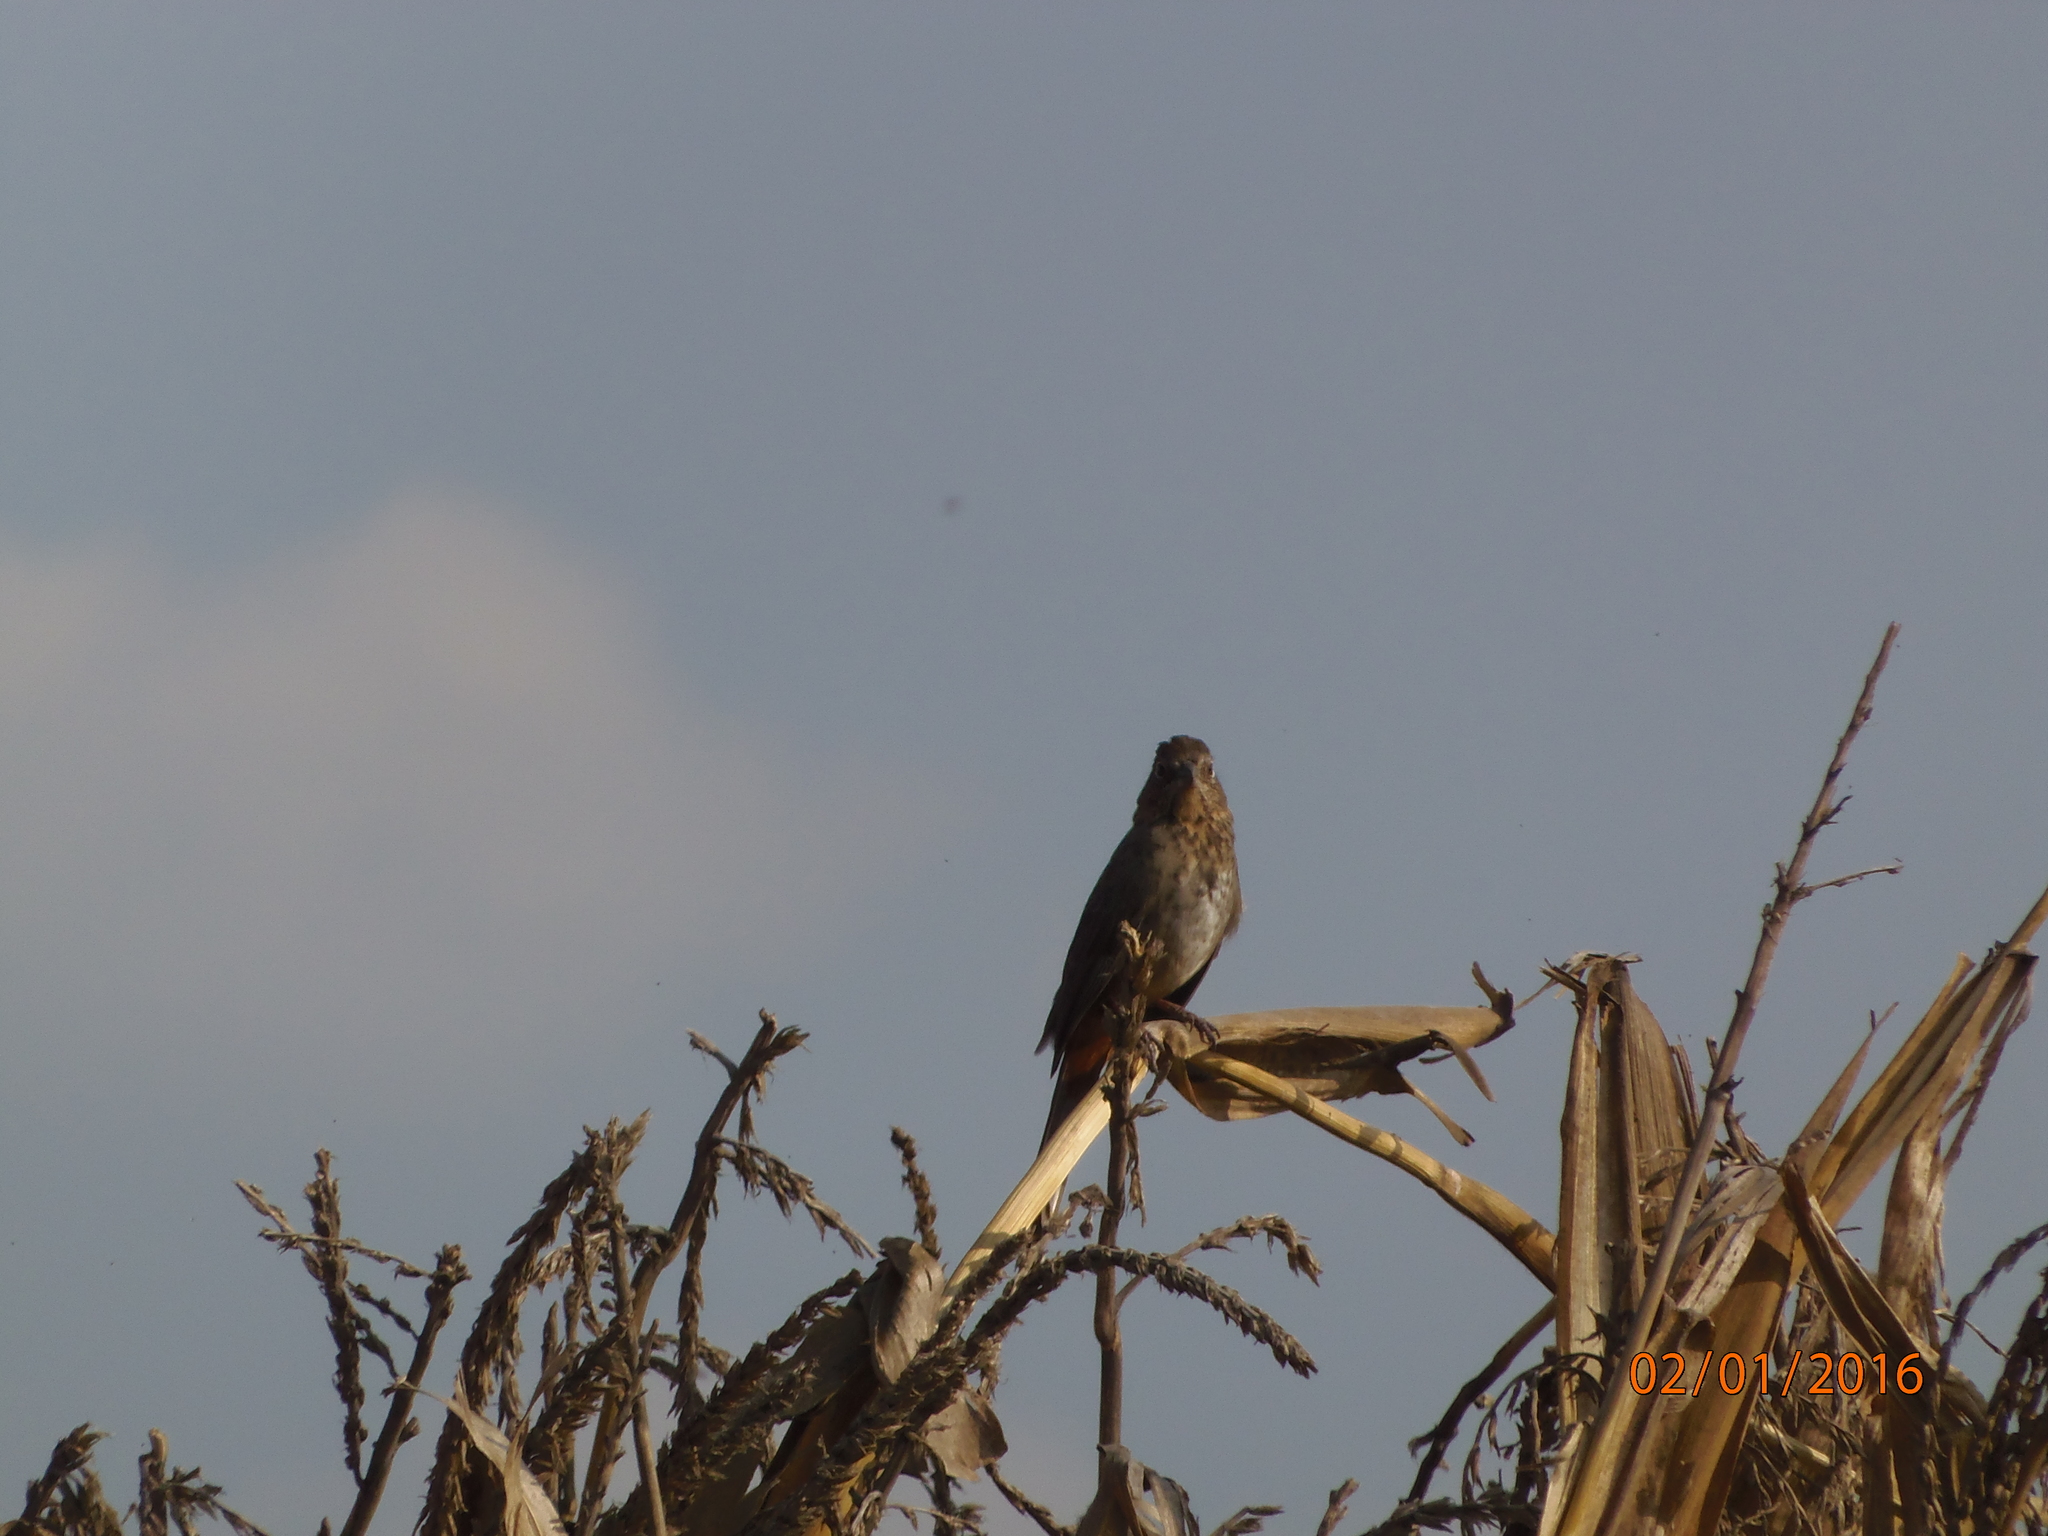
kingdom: Animalia
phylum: Chordata
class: Aves
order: Passeriformes
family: Passerellidae
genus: Melozone
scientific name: Melozone fusca
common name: Canyon towhee
